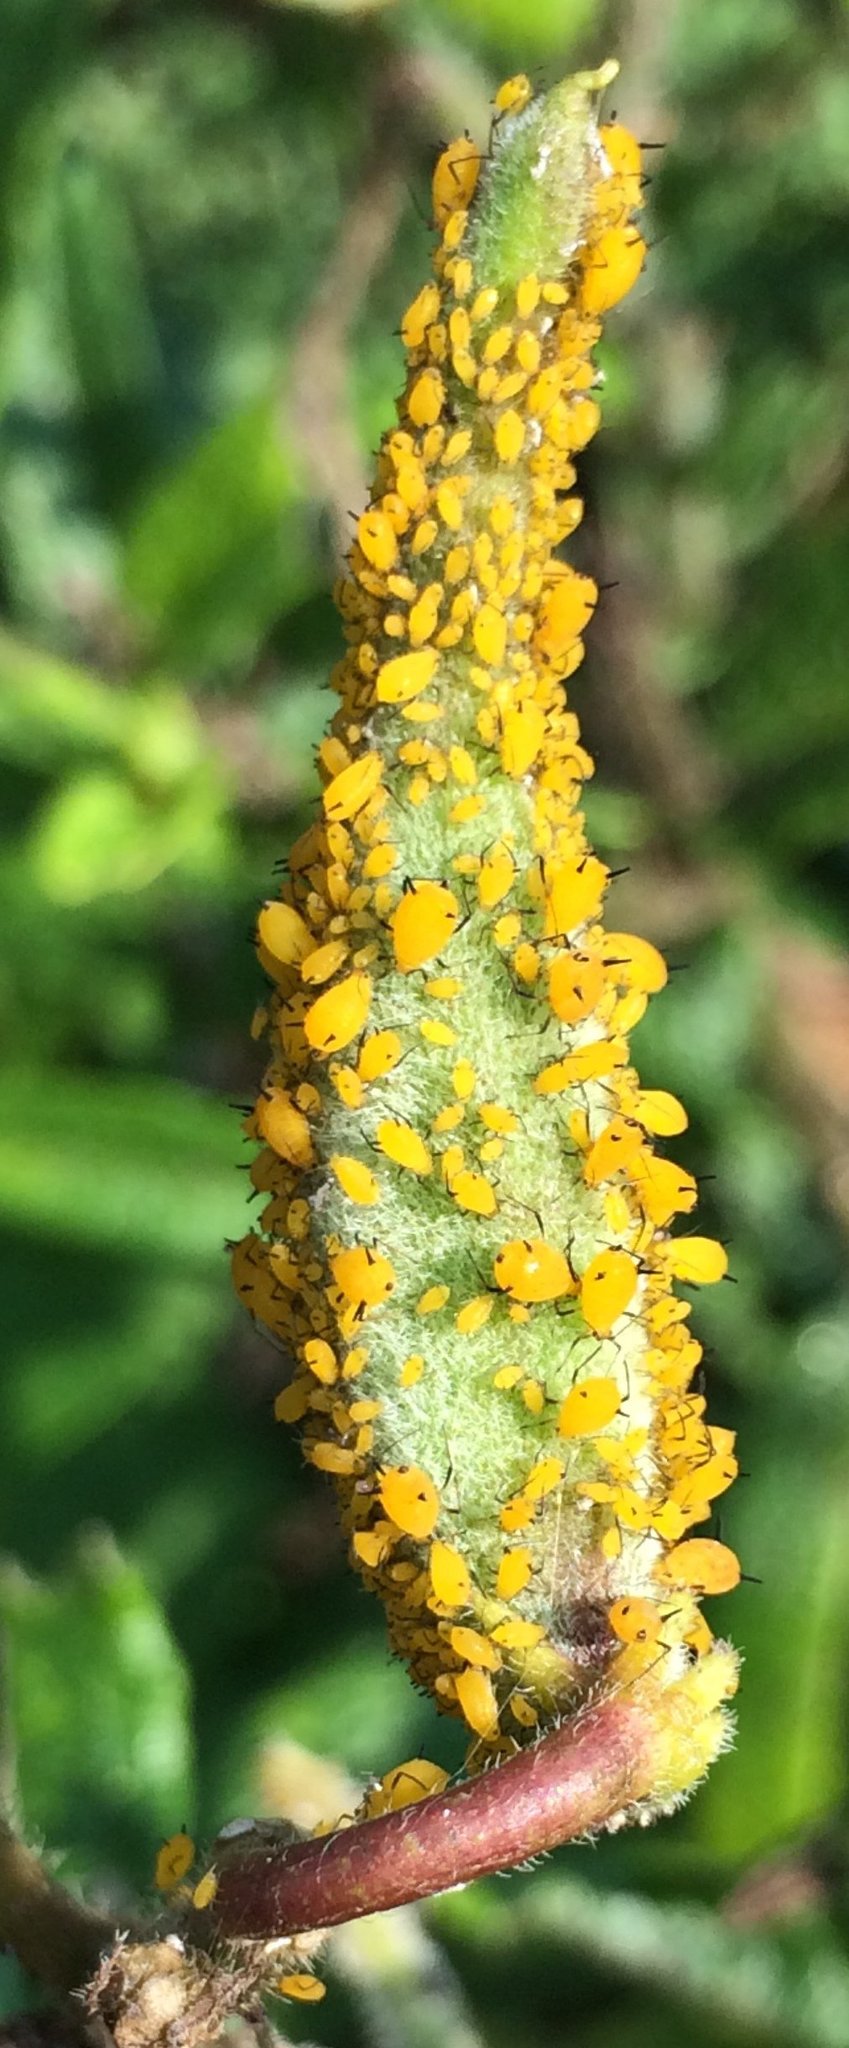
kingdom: Animalia
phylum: Arthropoda
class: Insecta
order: Hemiptera
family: Aphididae
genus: Aphis
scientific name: Aphis nerii
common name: Oleander aphid
